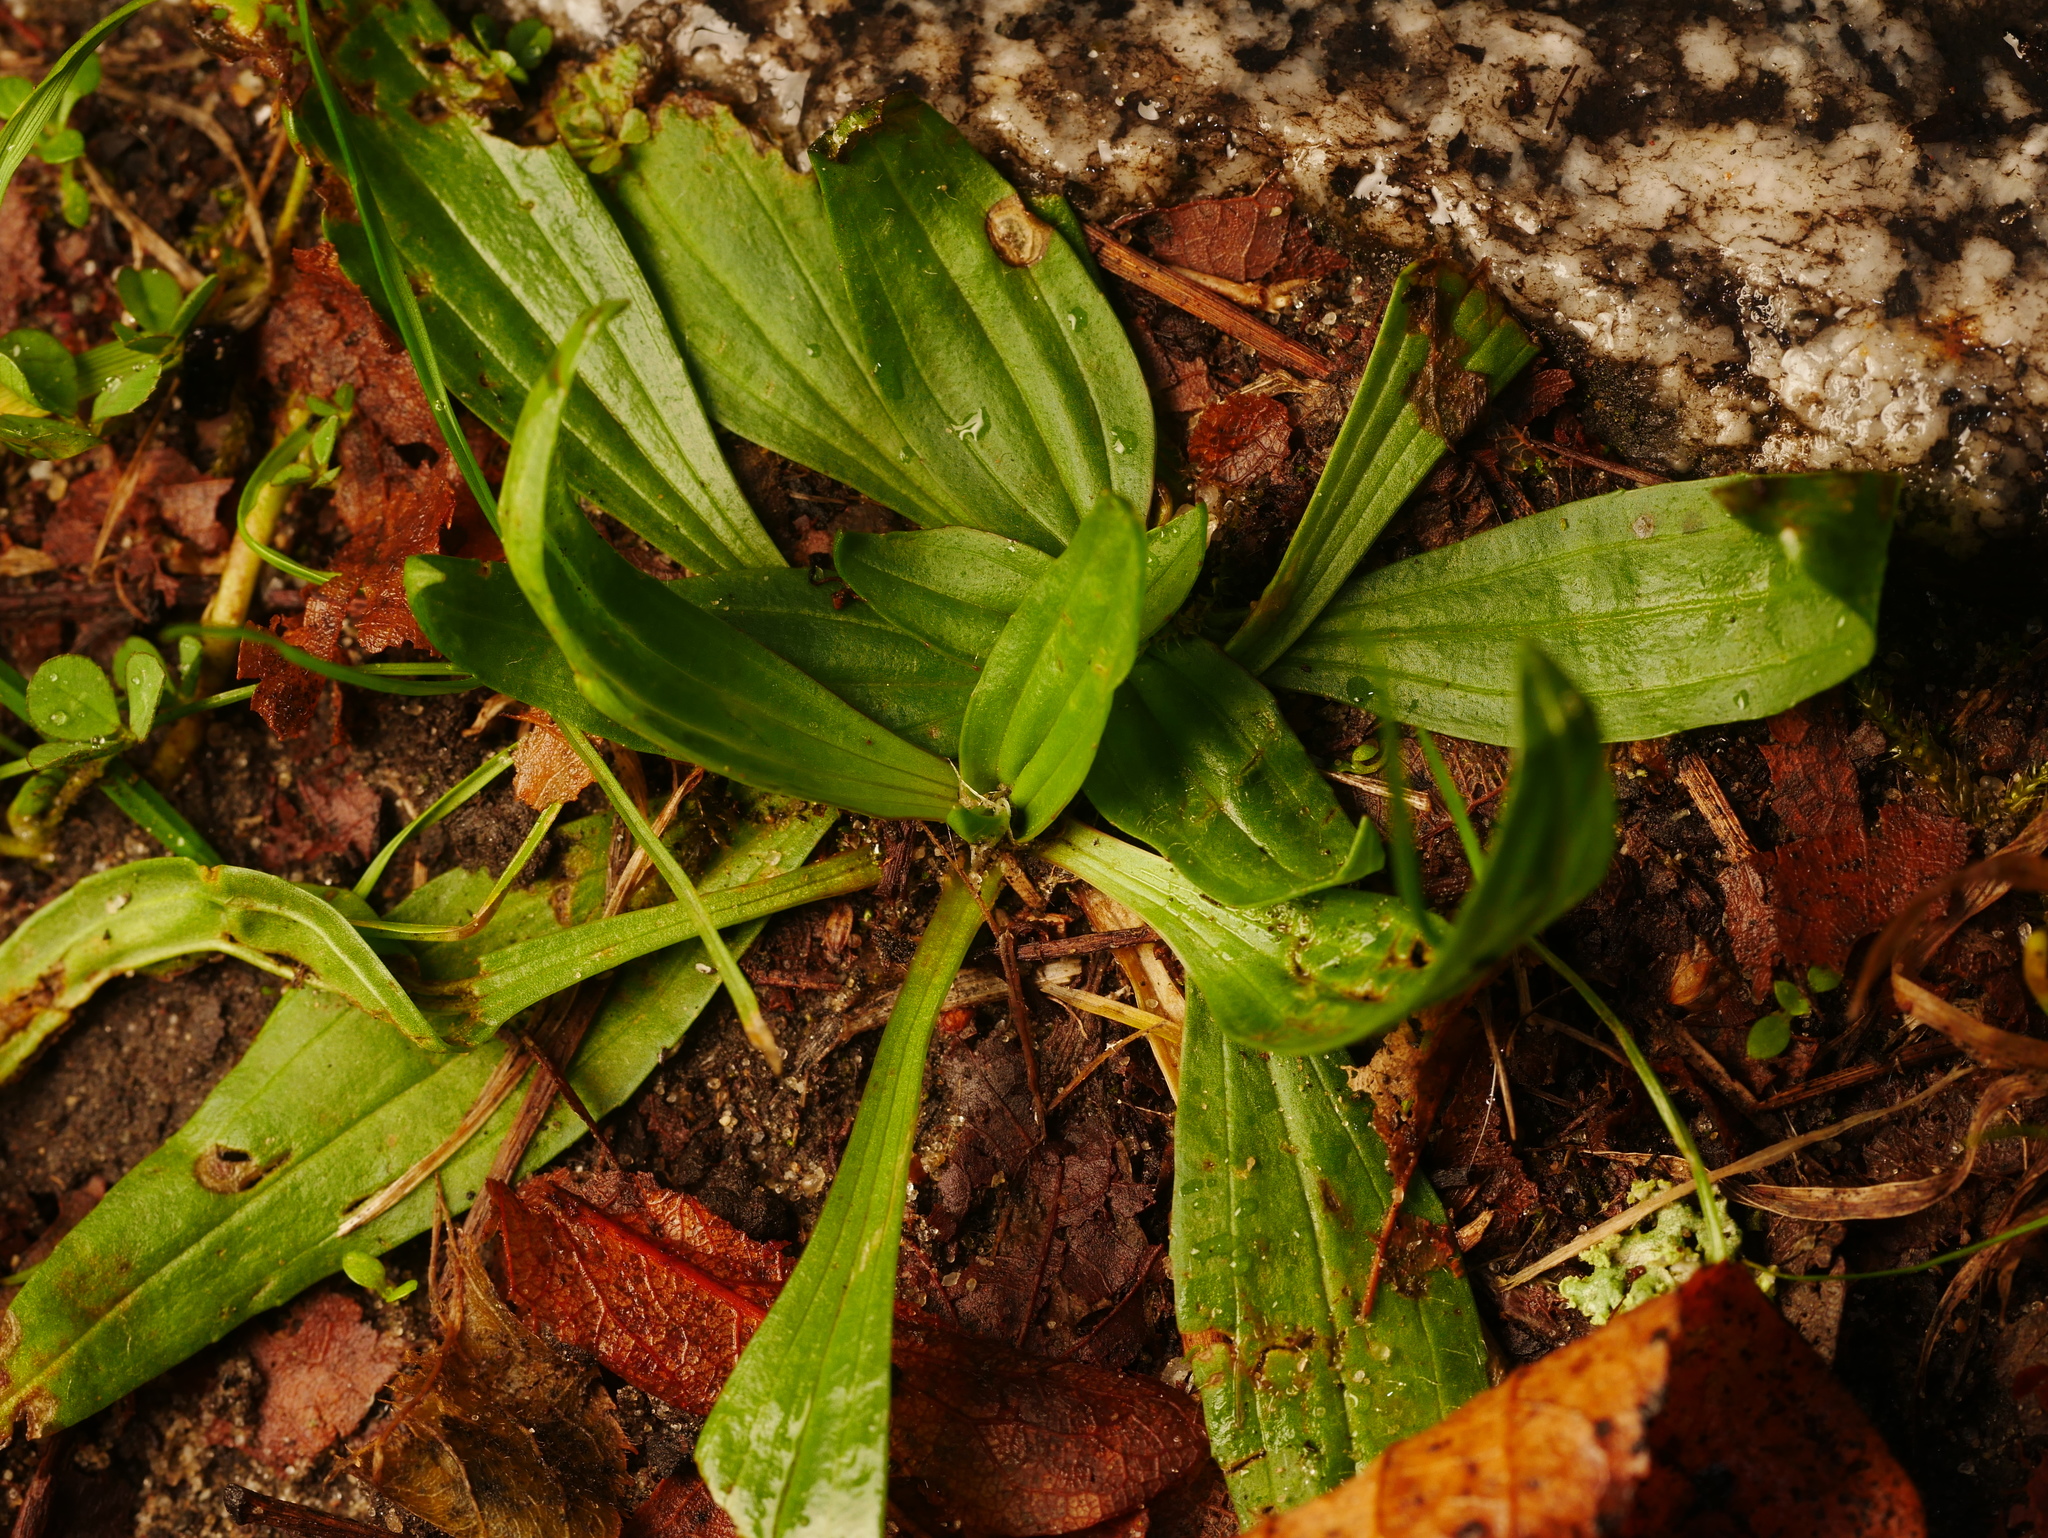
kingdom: Plantae
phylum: Tracheophyta
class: Magnoliopsida
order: Lamiales
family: Plantaginaceae
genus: Plantago
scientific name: Plantago lanceolata
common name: Ribwort plantain
